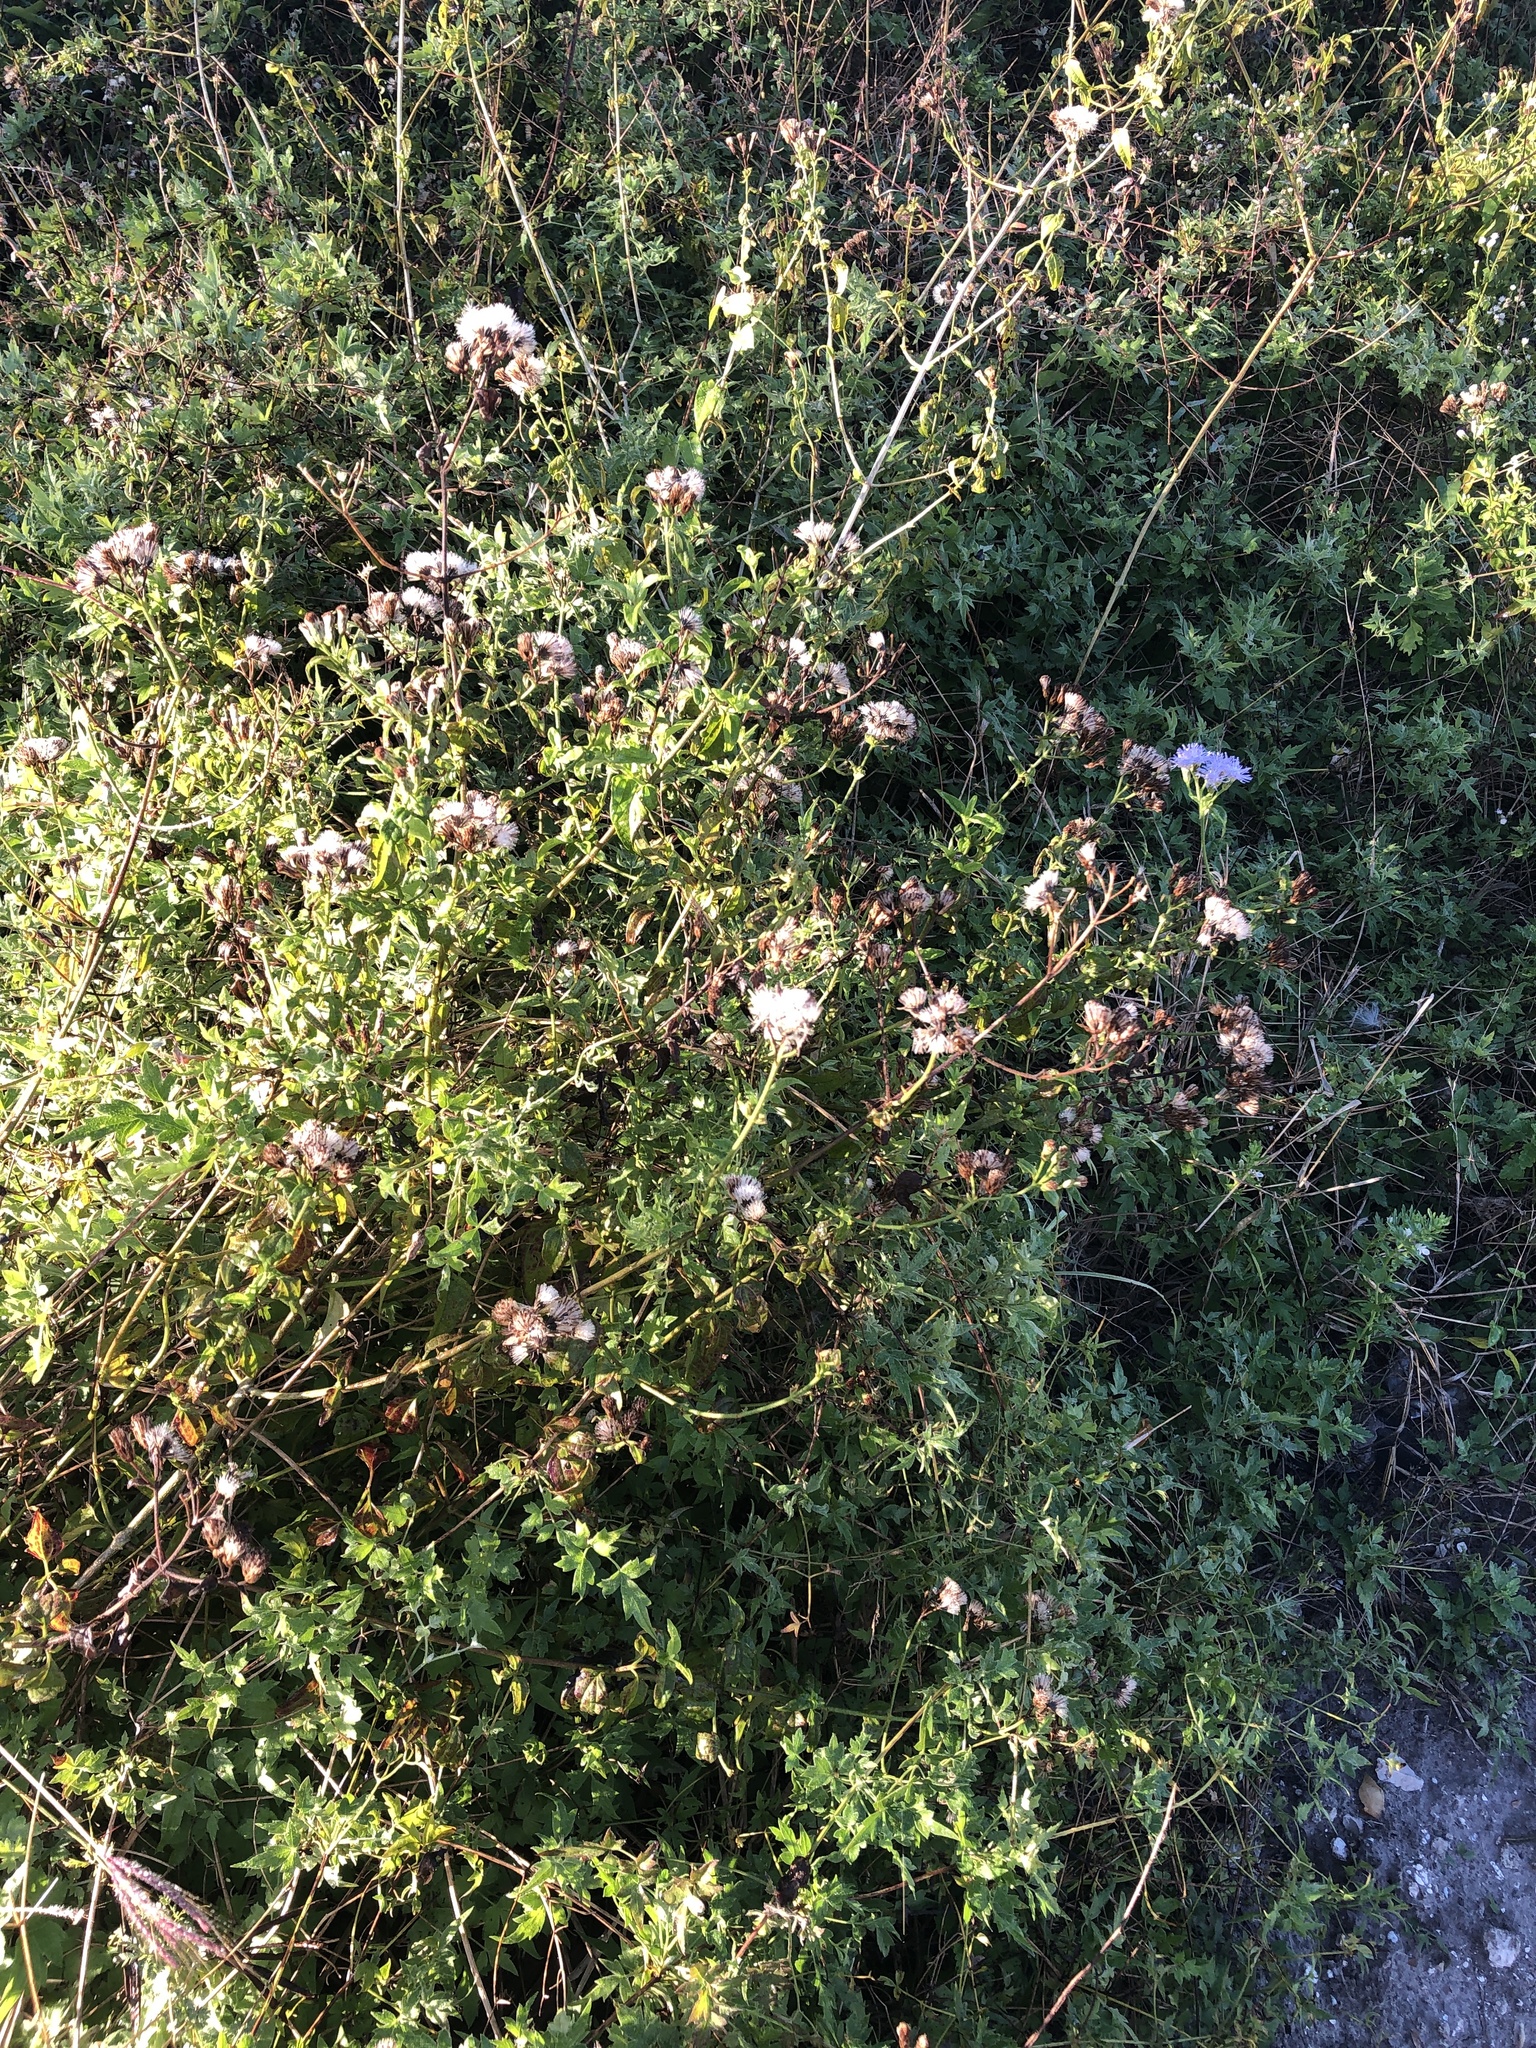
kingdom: Plantae
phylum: Tracheophyta
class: Magnoliopsida
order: Asterales
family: Asteraceae
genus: Chromolaena
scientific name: Chromolaena odorata
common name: Siamweed
